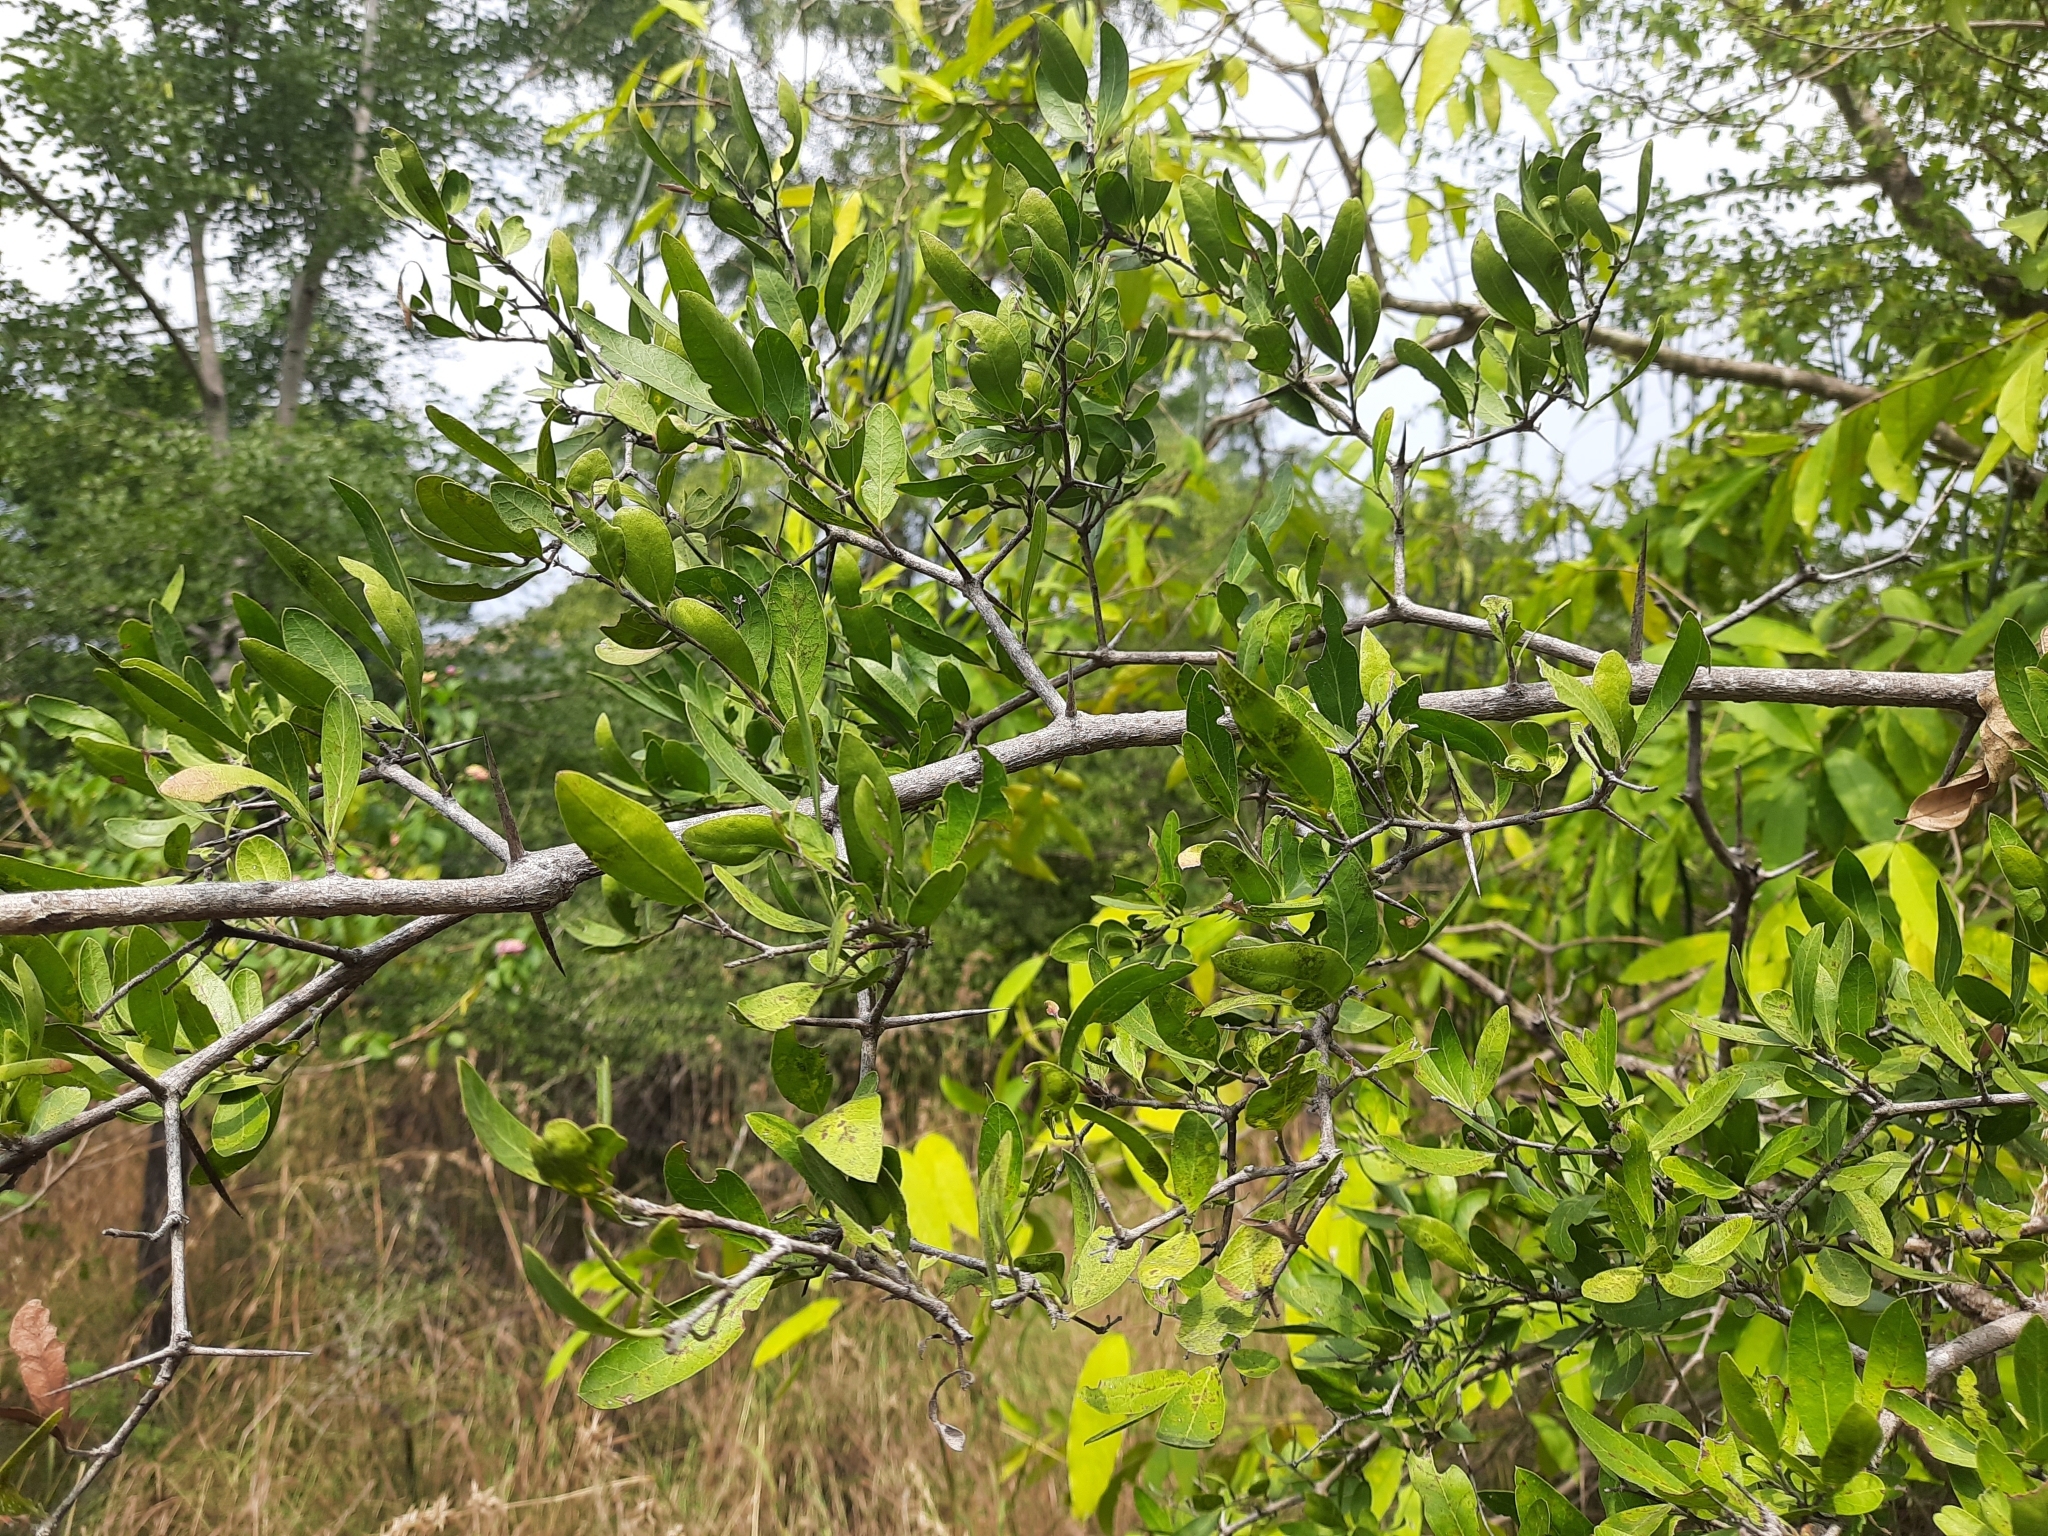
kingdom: Plantae
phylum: Tracheophyta
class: Magnoliopsida
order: Gentianales
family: Apocynaceae
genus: Carissa
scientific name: Carissa spinarum
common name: Egyptian carissa
